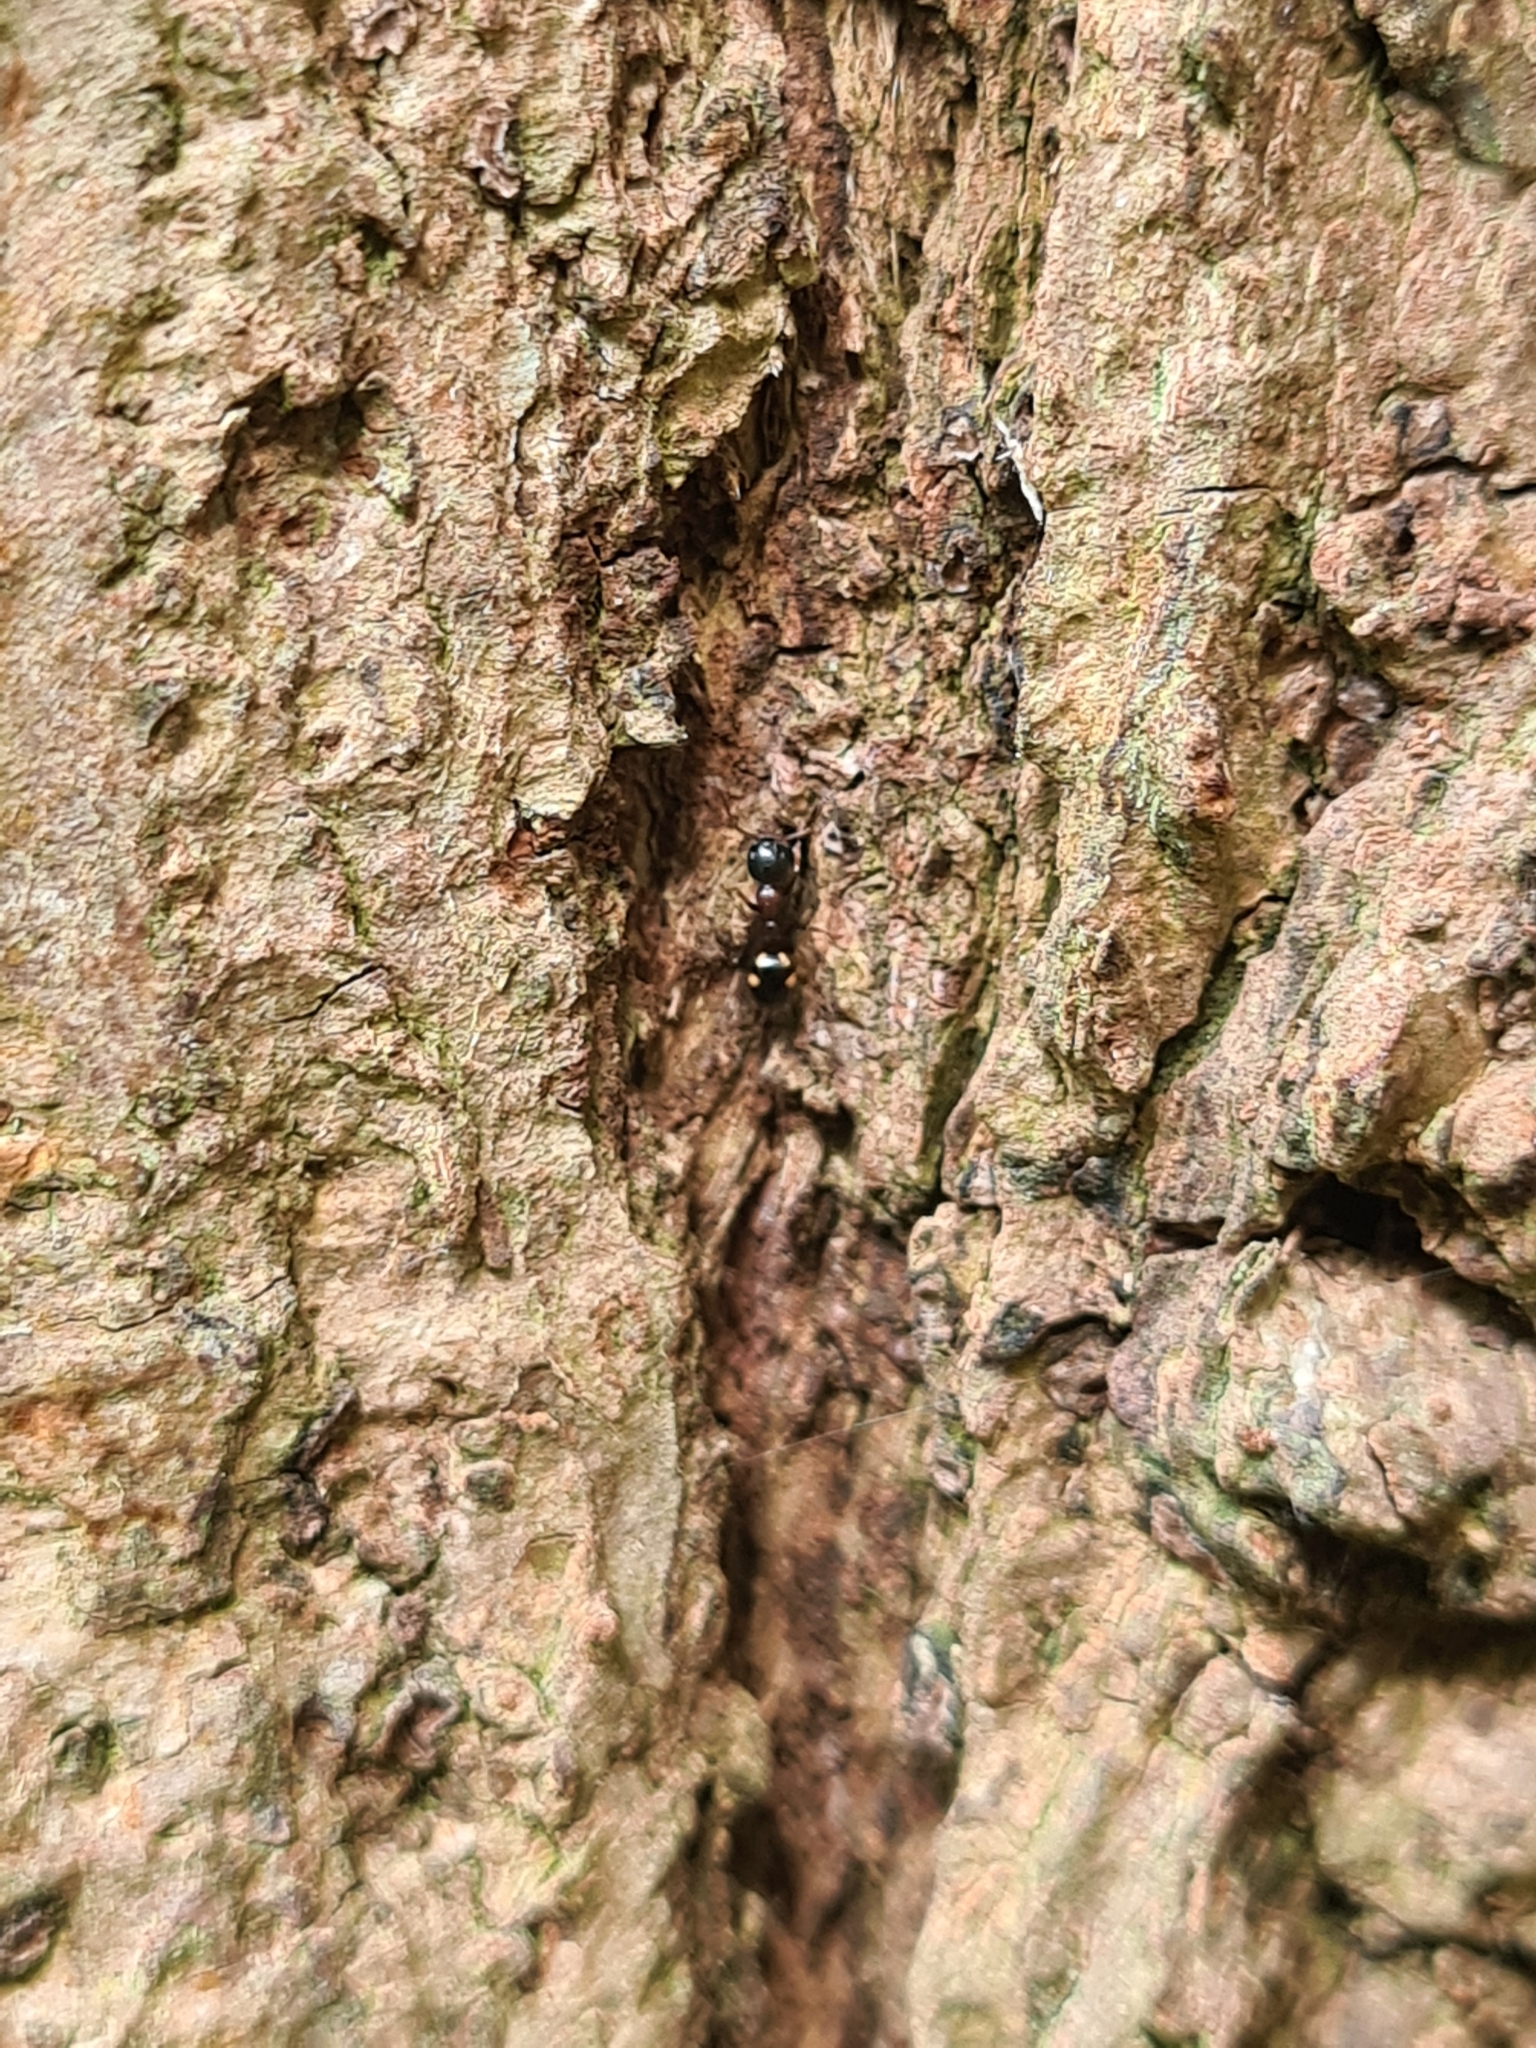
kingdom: Animalia
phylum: Arthropoda
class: Insecta
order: Hymenoptera
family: Formicidae
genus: Dolichoderus
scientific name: Dolichoderus quadripunctatus
